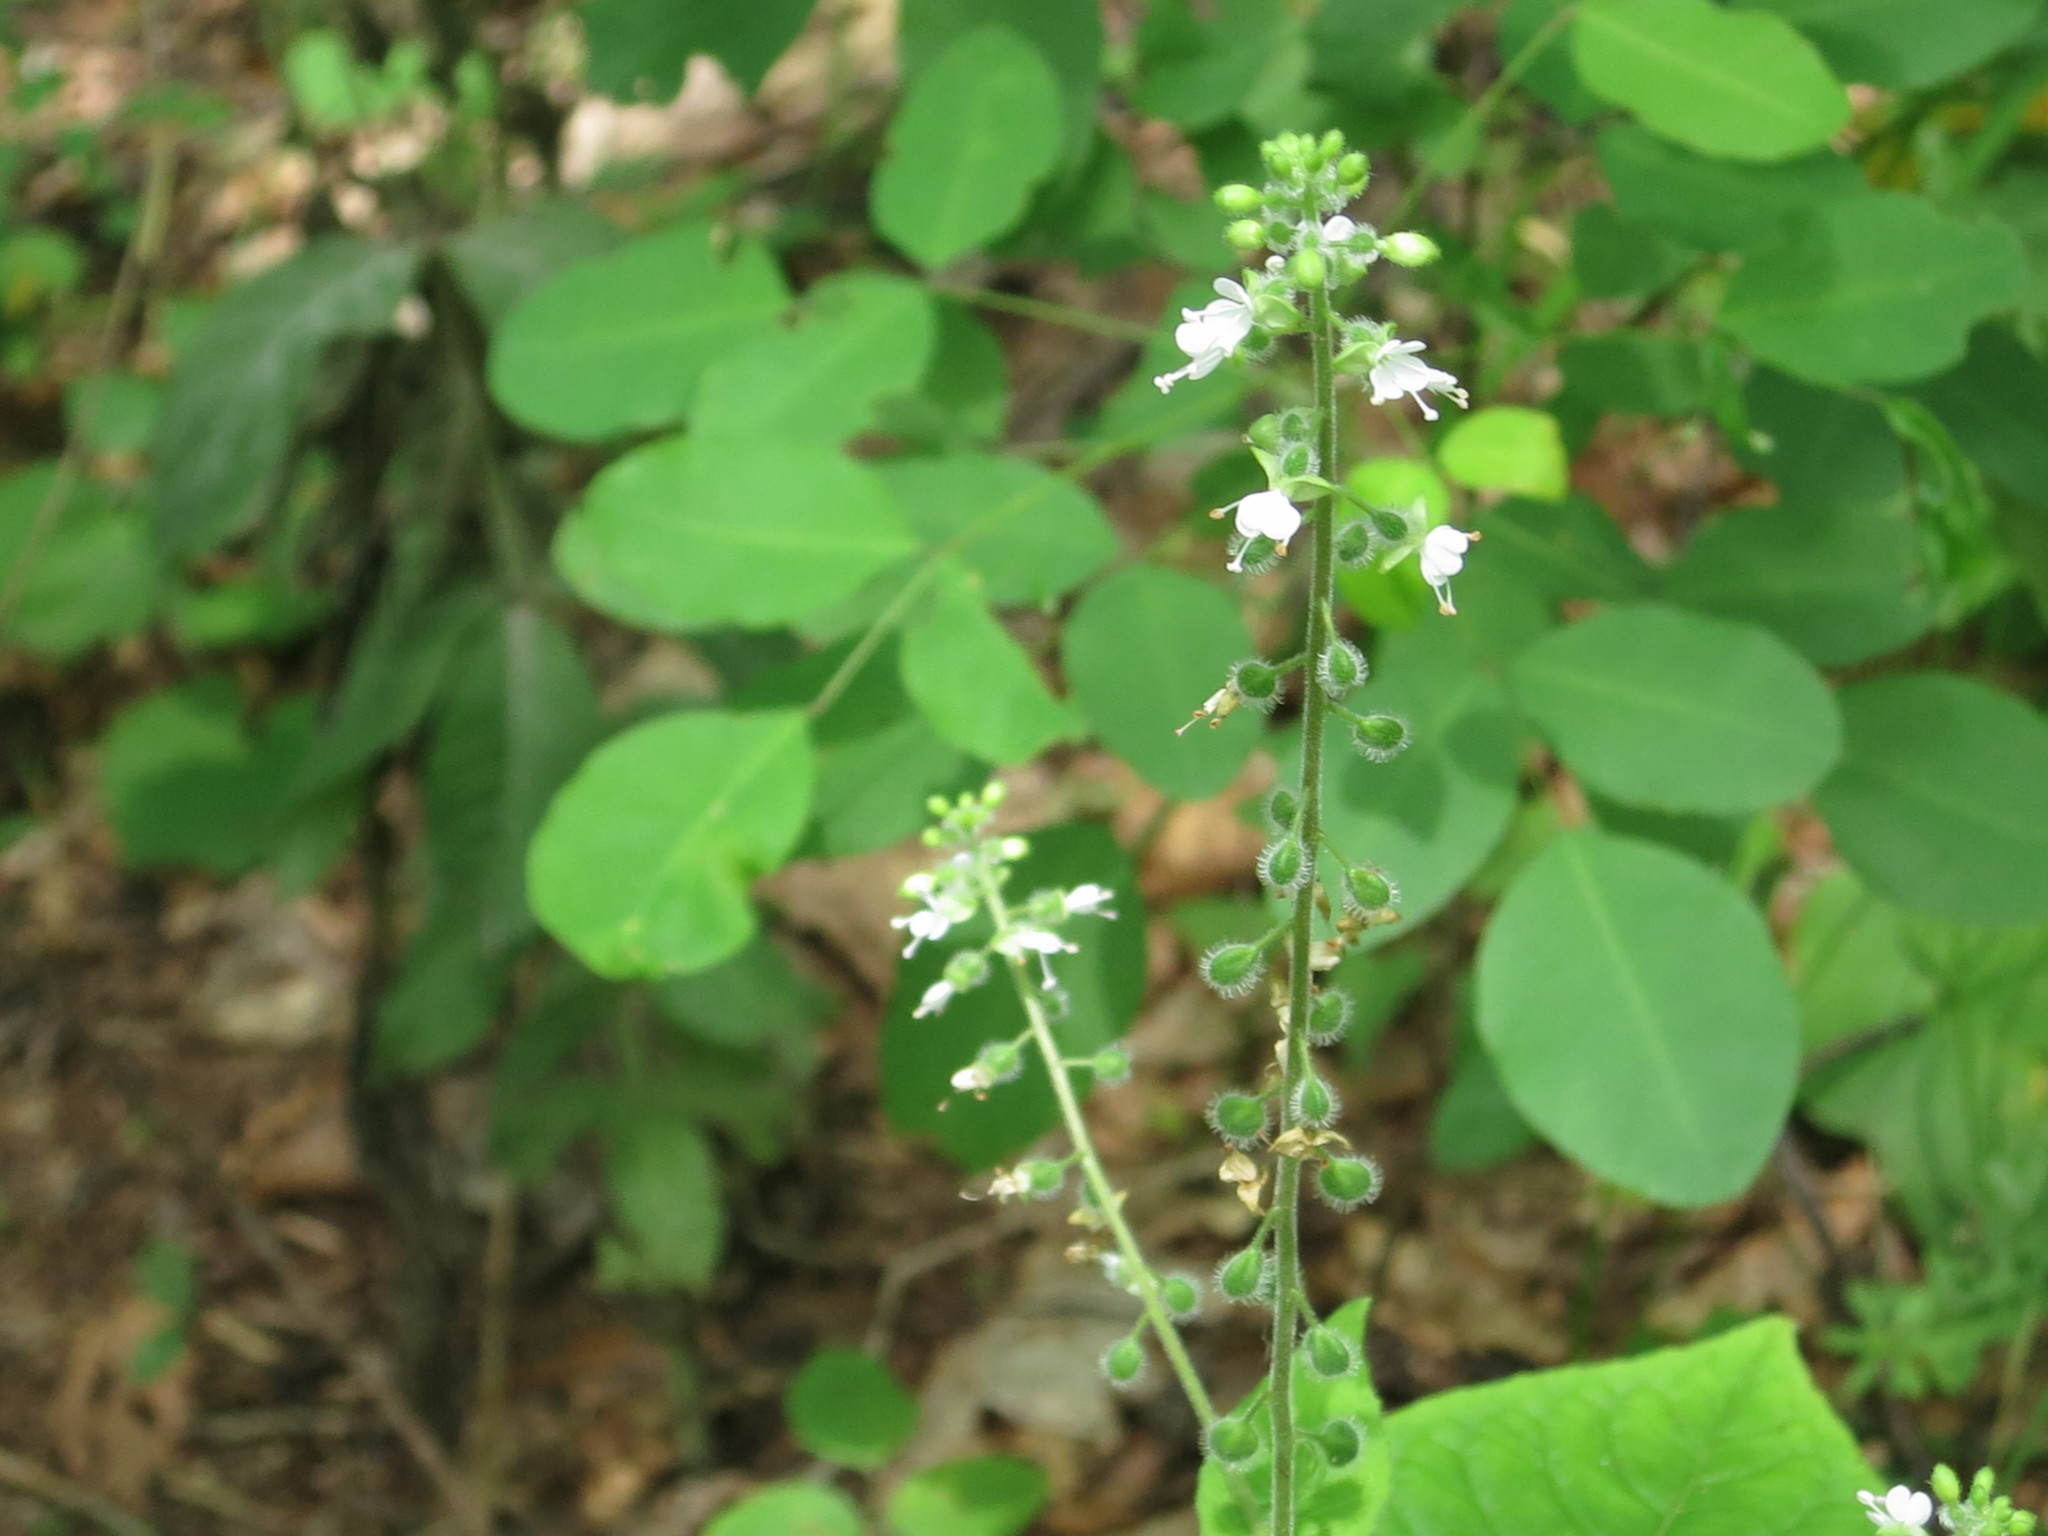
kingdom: Plantae
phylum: Tracheophyta
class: Magnoliopsida
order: Myrtales
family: Onagraceae
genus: Circaea
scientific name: Circaea cordata
